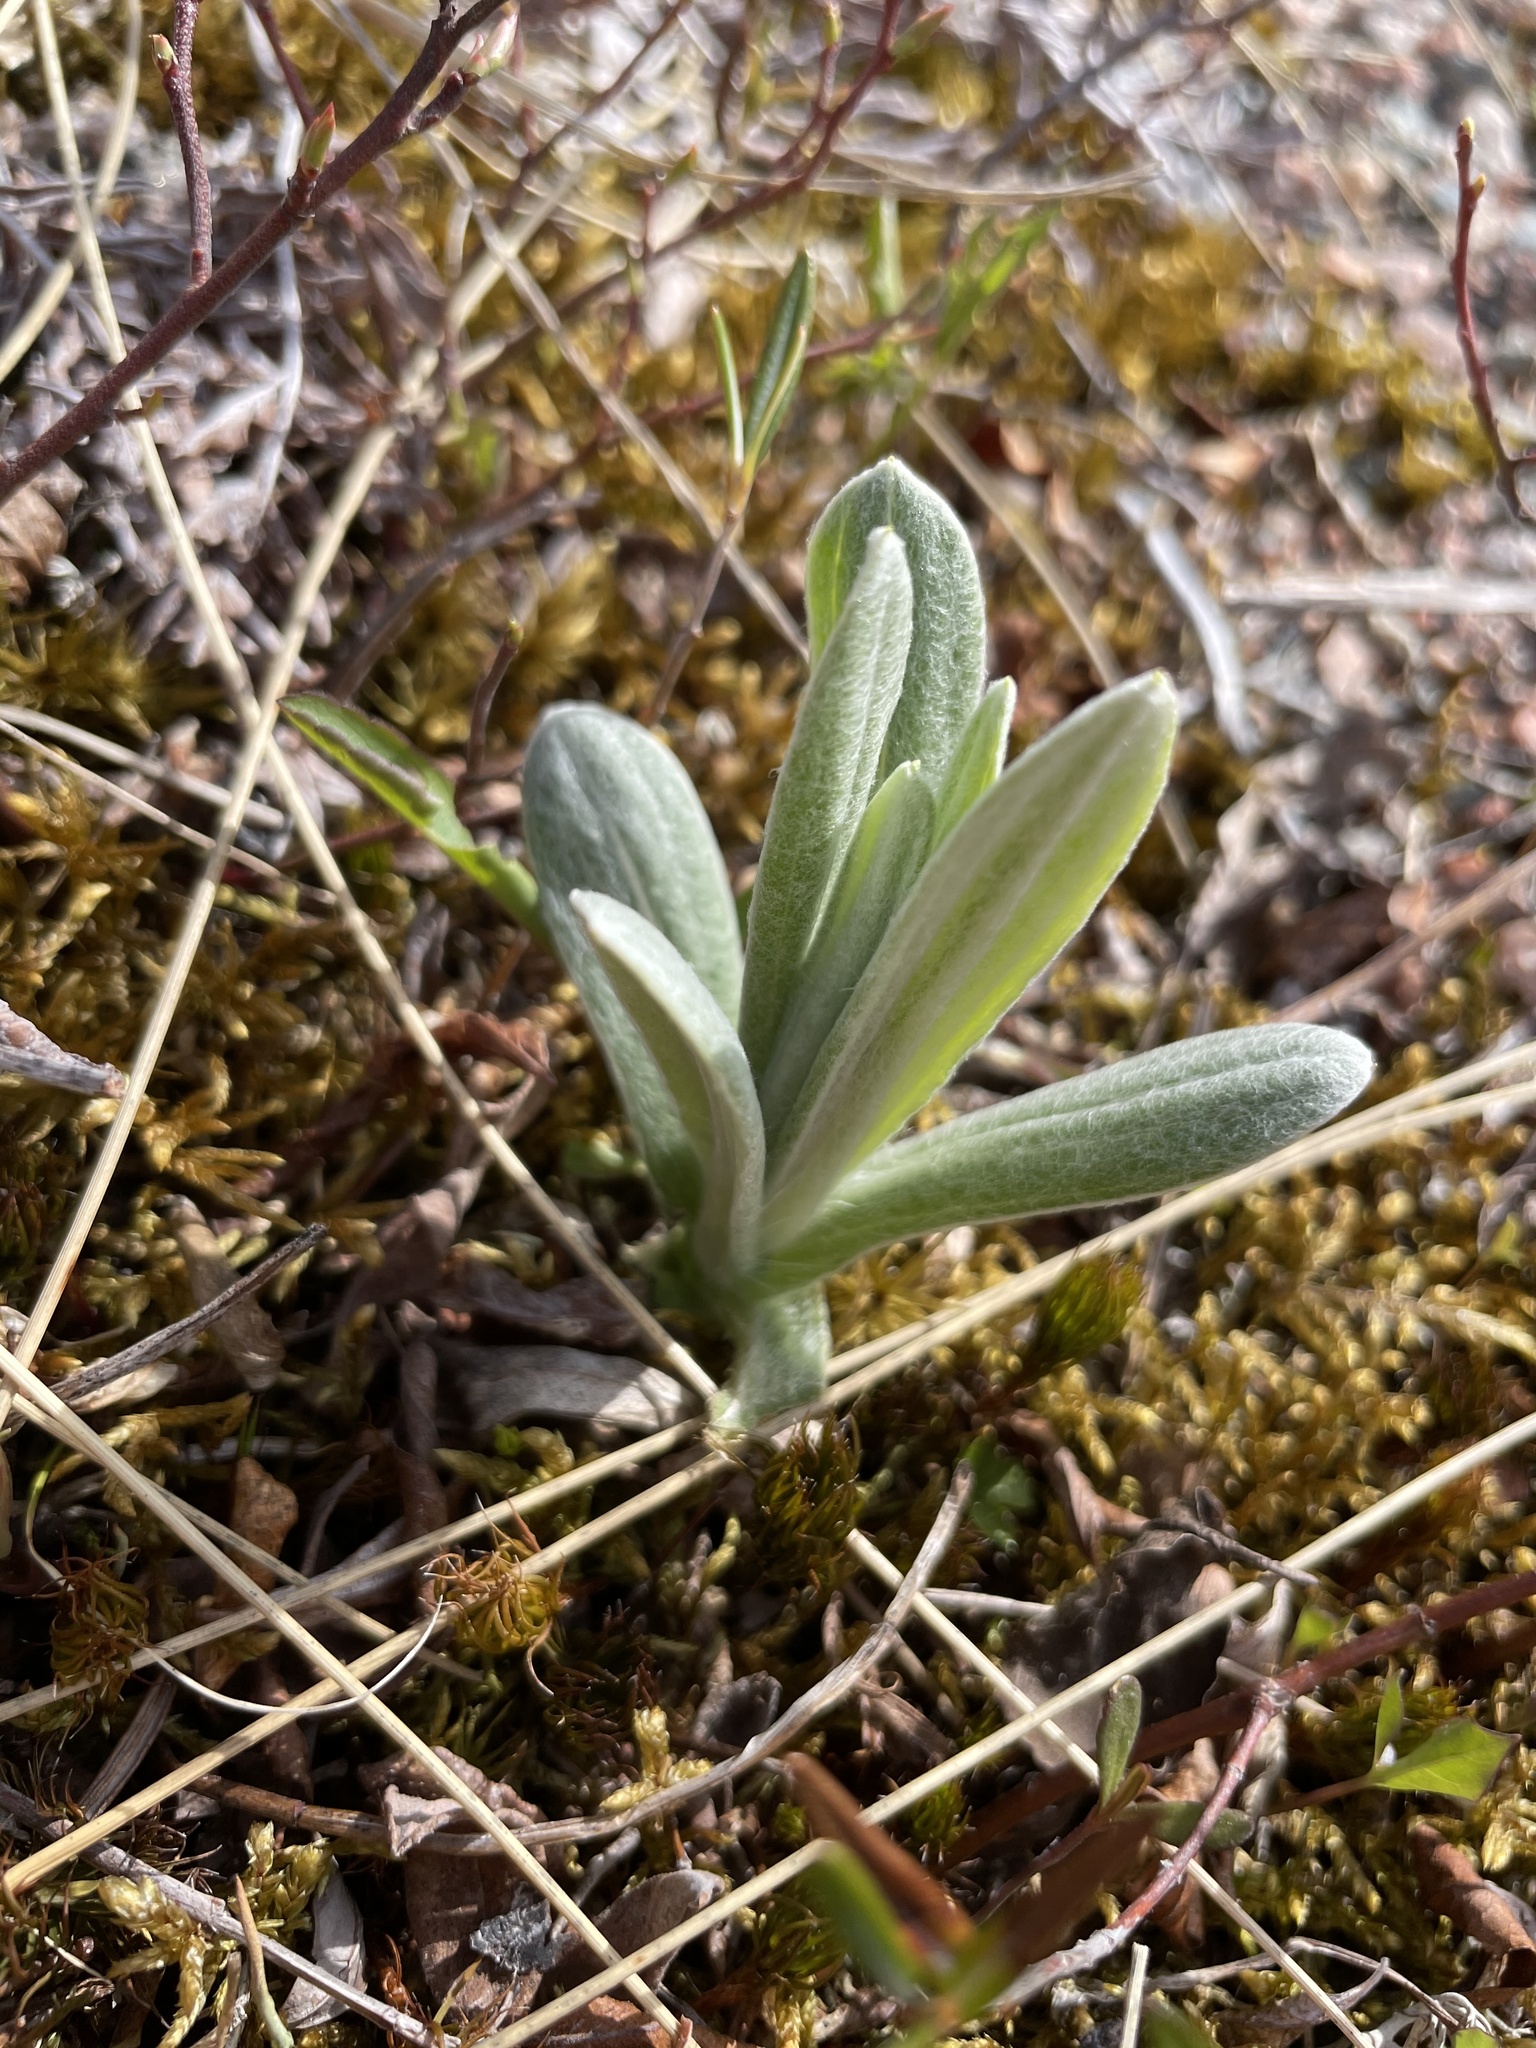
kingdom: Plantae
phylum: Tracheophyta
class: Magnoliopsida
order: Asterales
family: Asteraceae
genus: Anaphalis
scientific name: Anaphalis margaritacea
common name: Pearly everlasting
